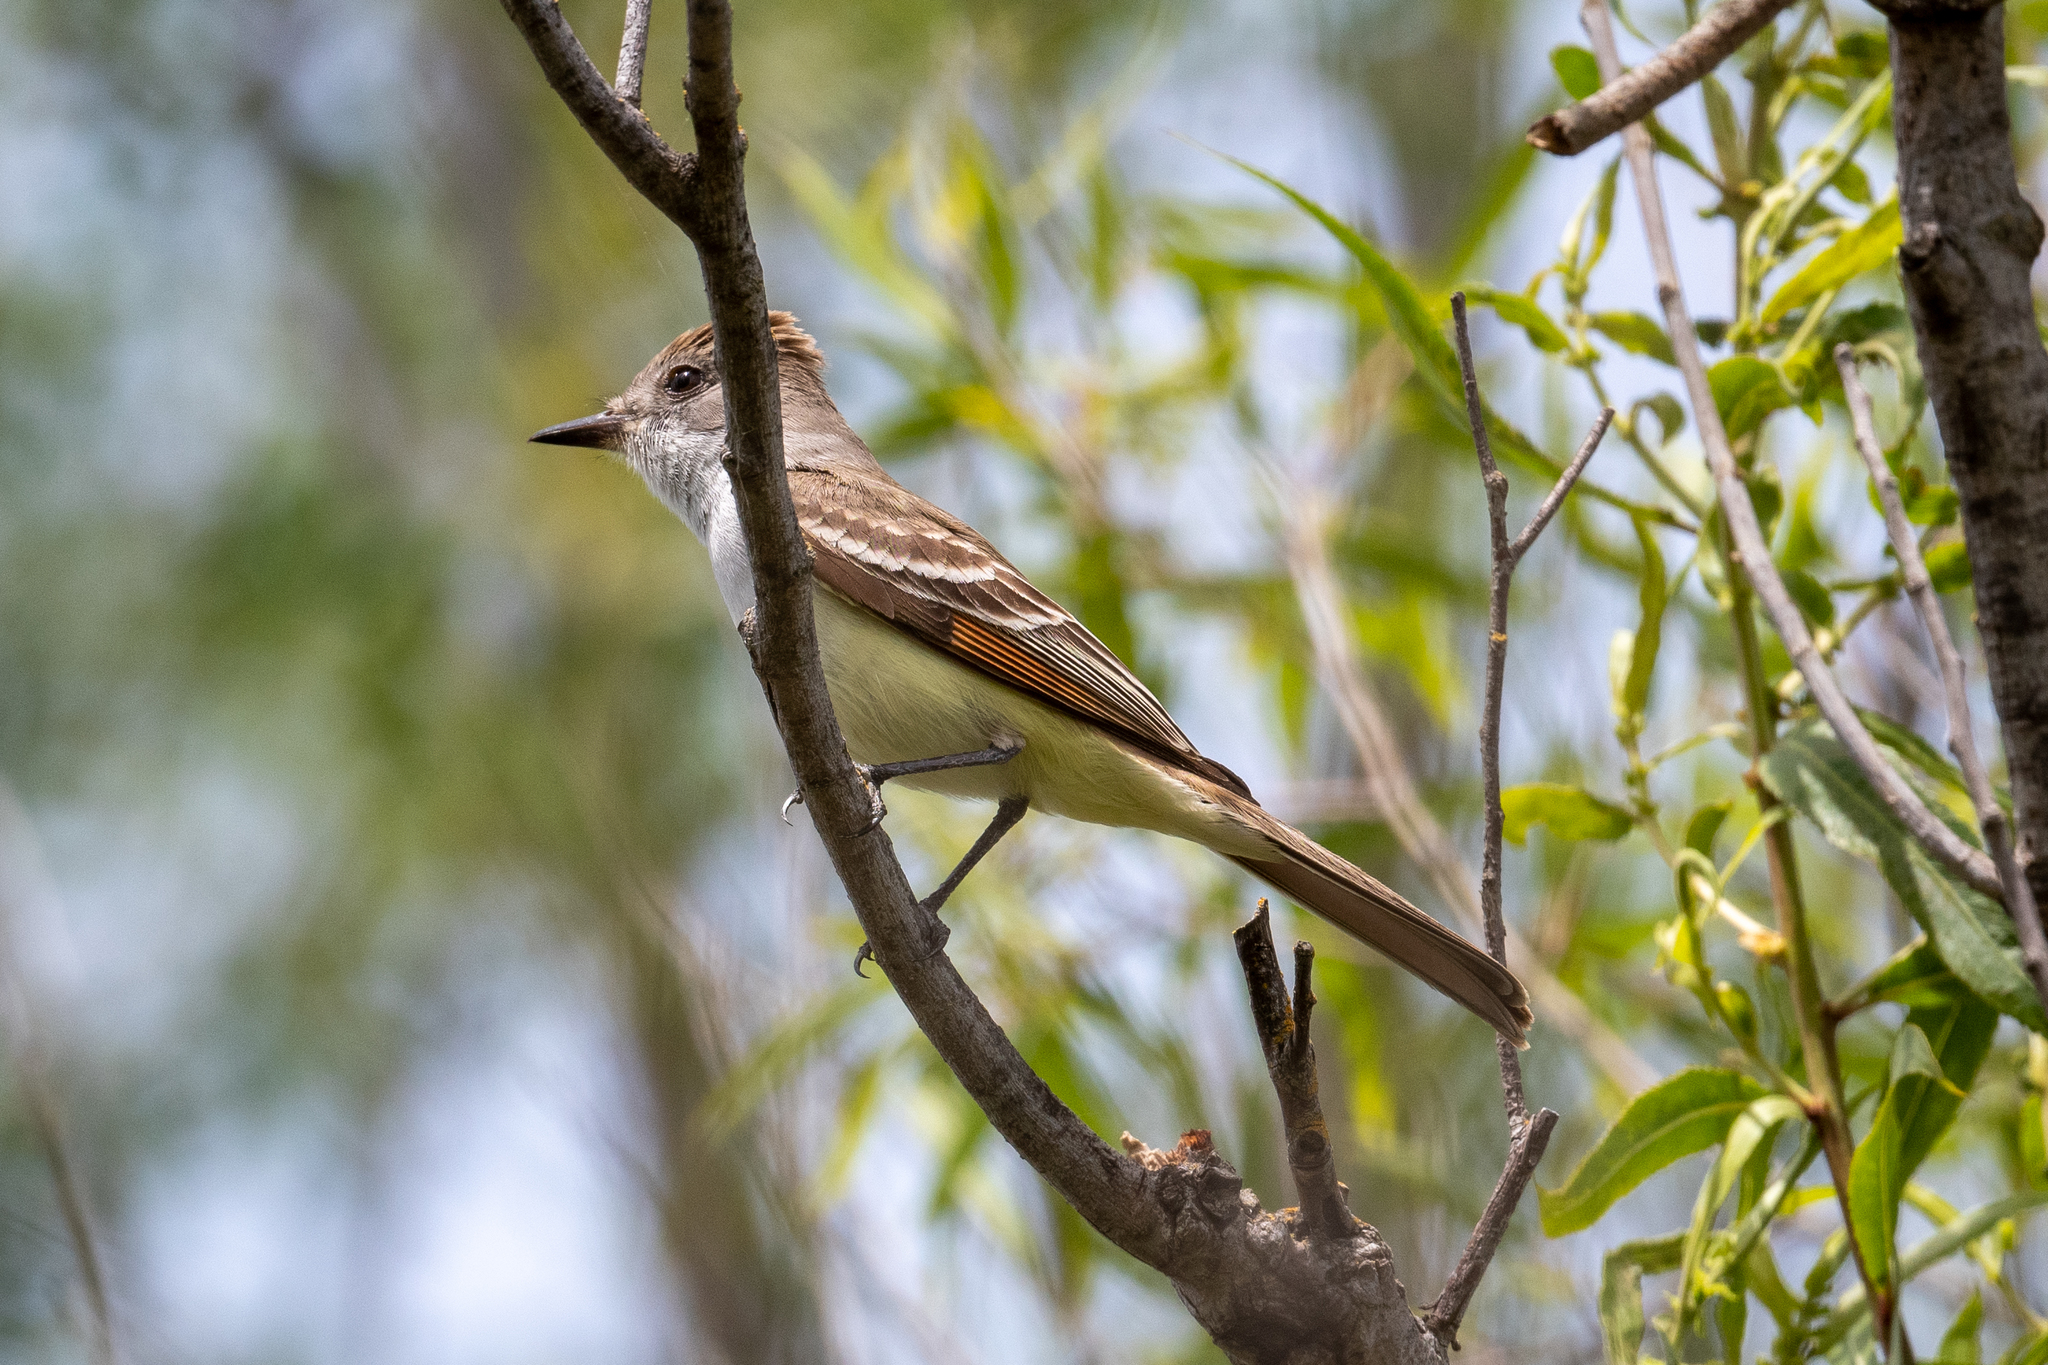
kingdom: Animalia
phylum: Chordata
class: Aves
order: Passeriformes
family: Tyrannidae
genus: Myiarchus
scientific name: Myiarchus cinerascens
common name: Ash-throated flycatcher
